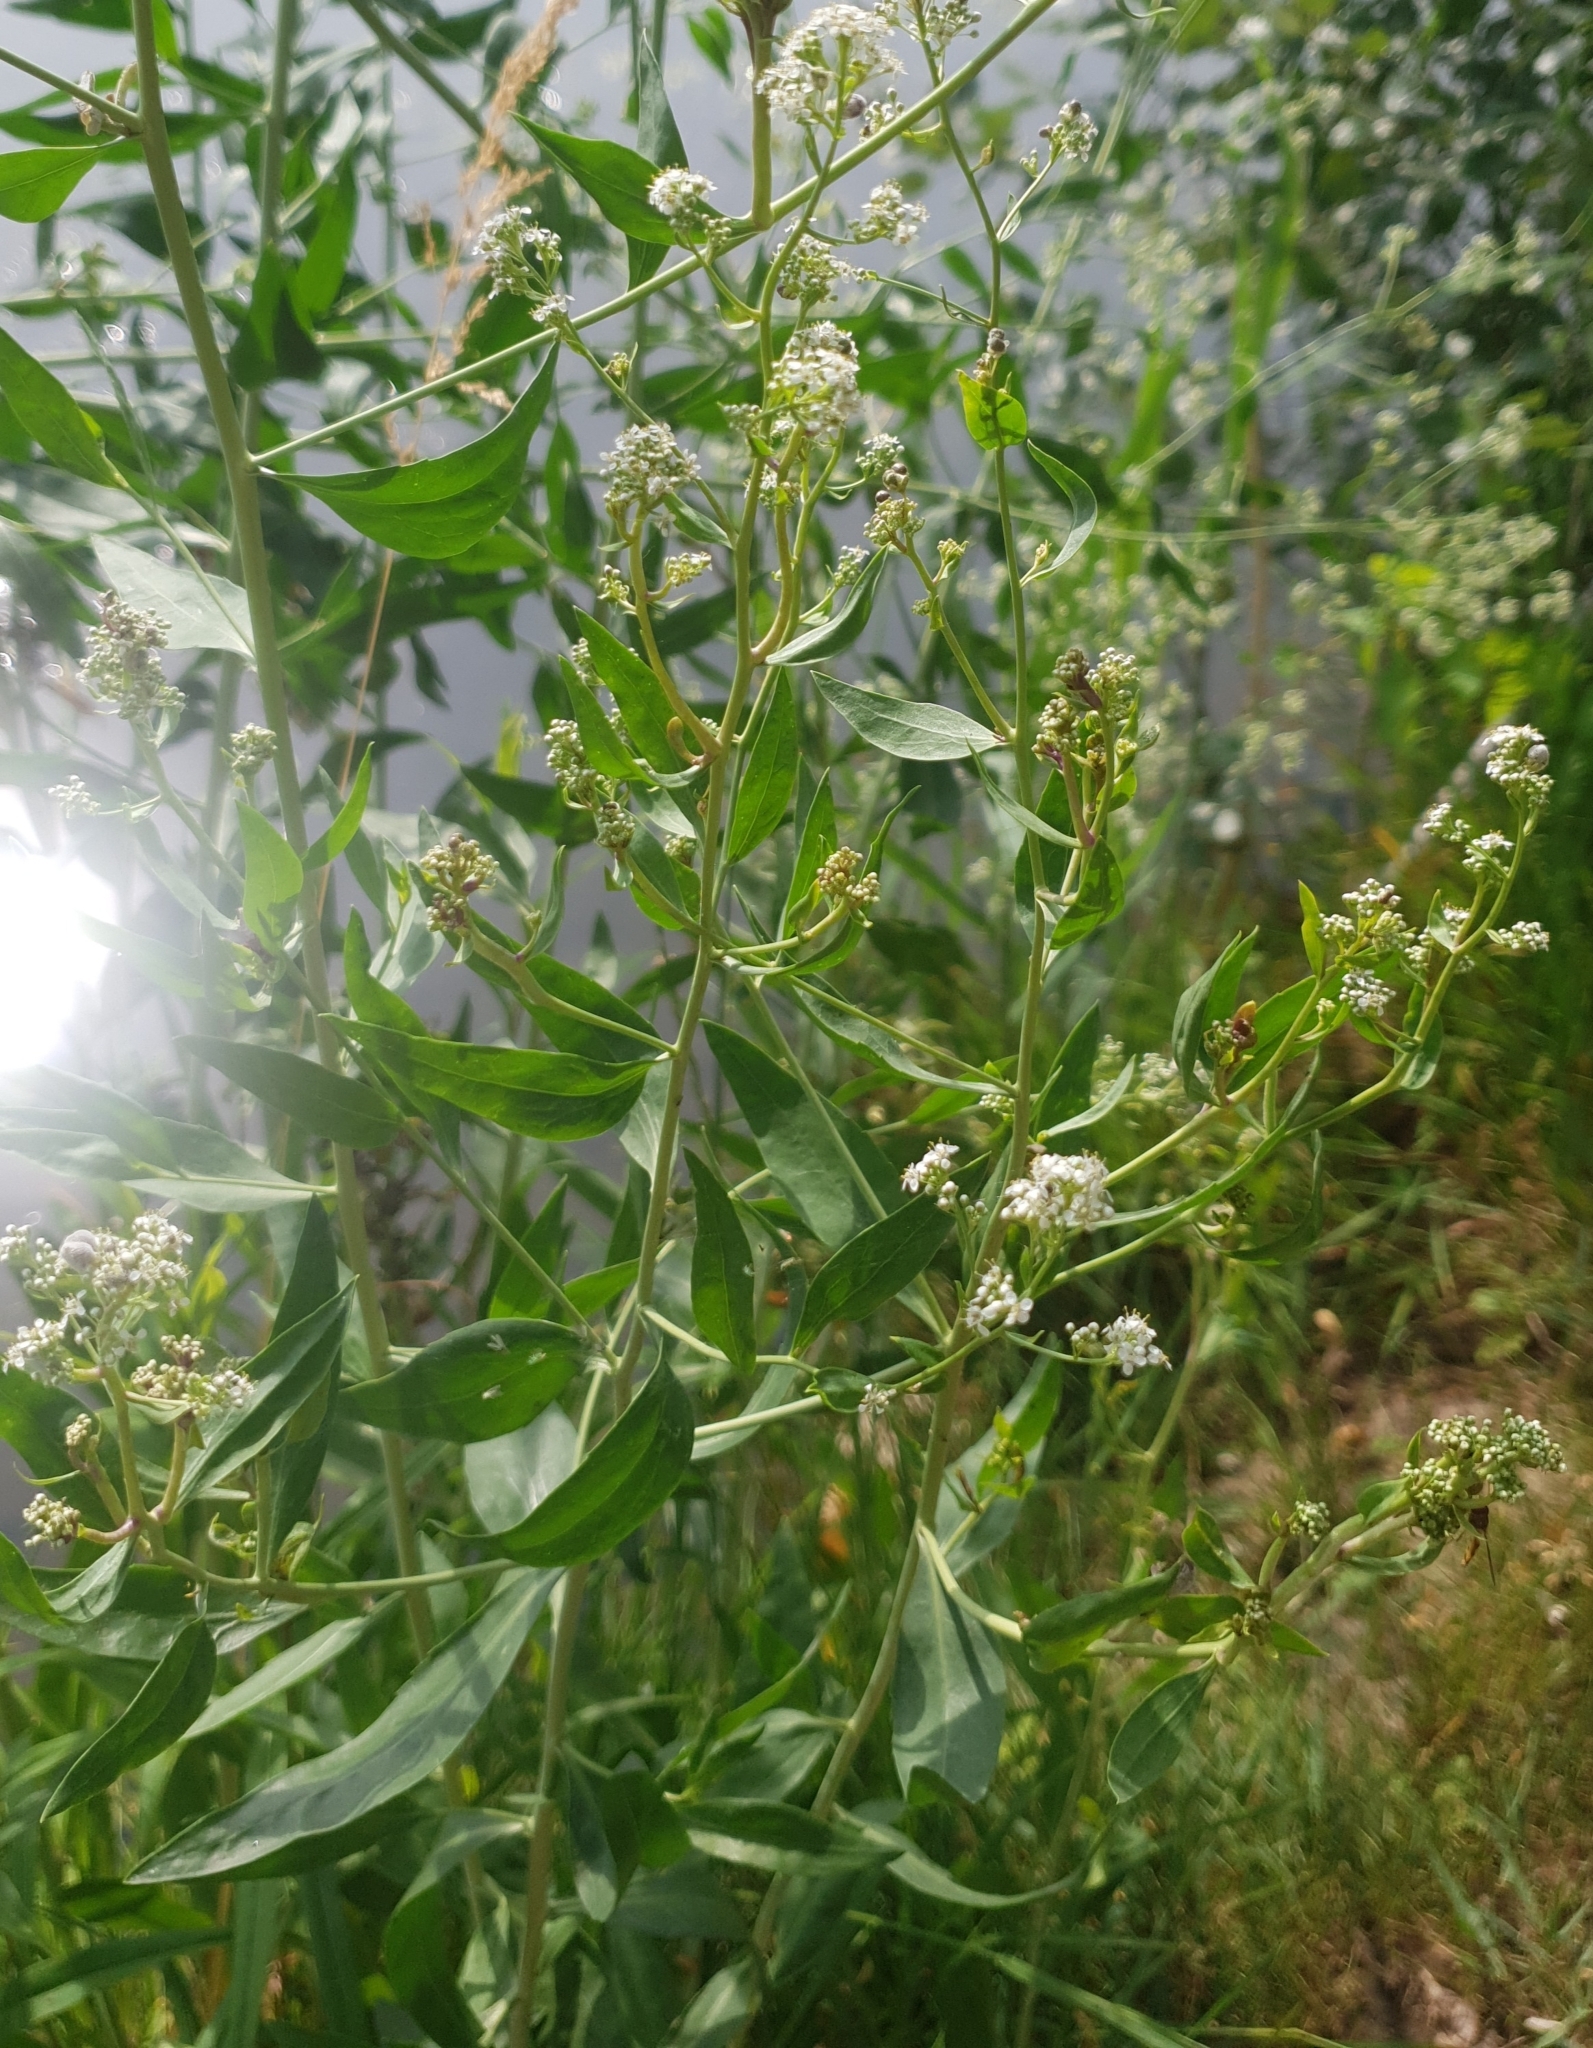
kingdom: Plantae
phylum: Tracheophyta
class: Magnoliopsida
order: Brassicales
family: Brassicaceae
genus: Lepidium
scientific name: Lepidium latifolium
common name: Dittander
